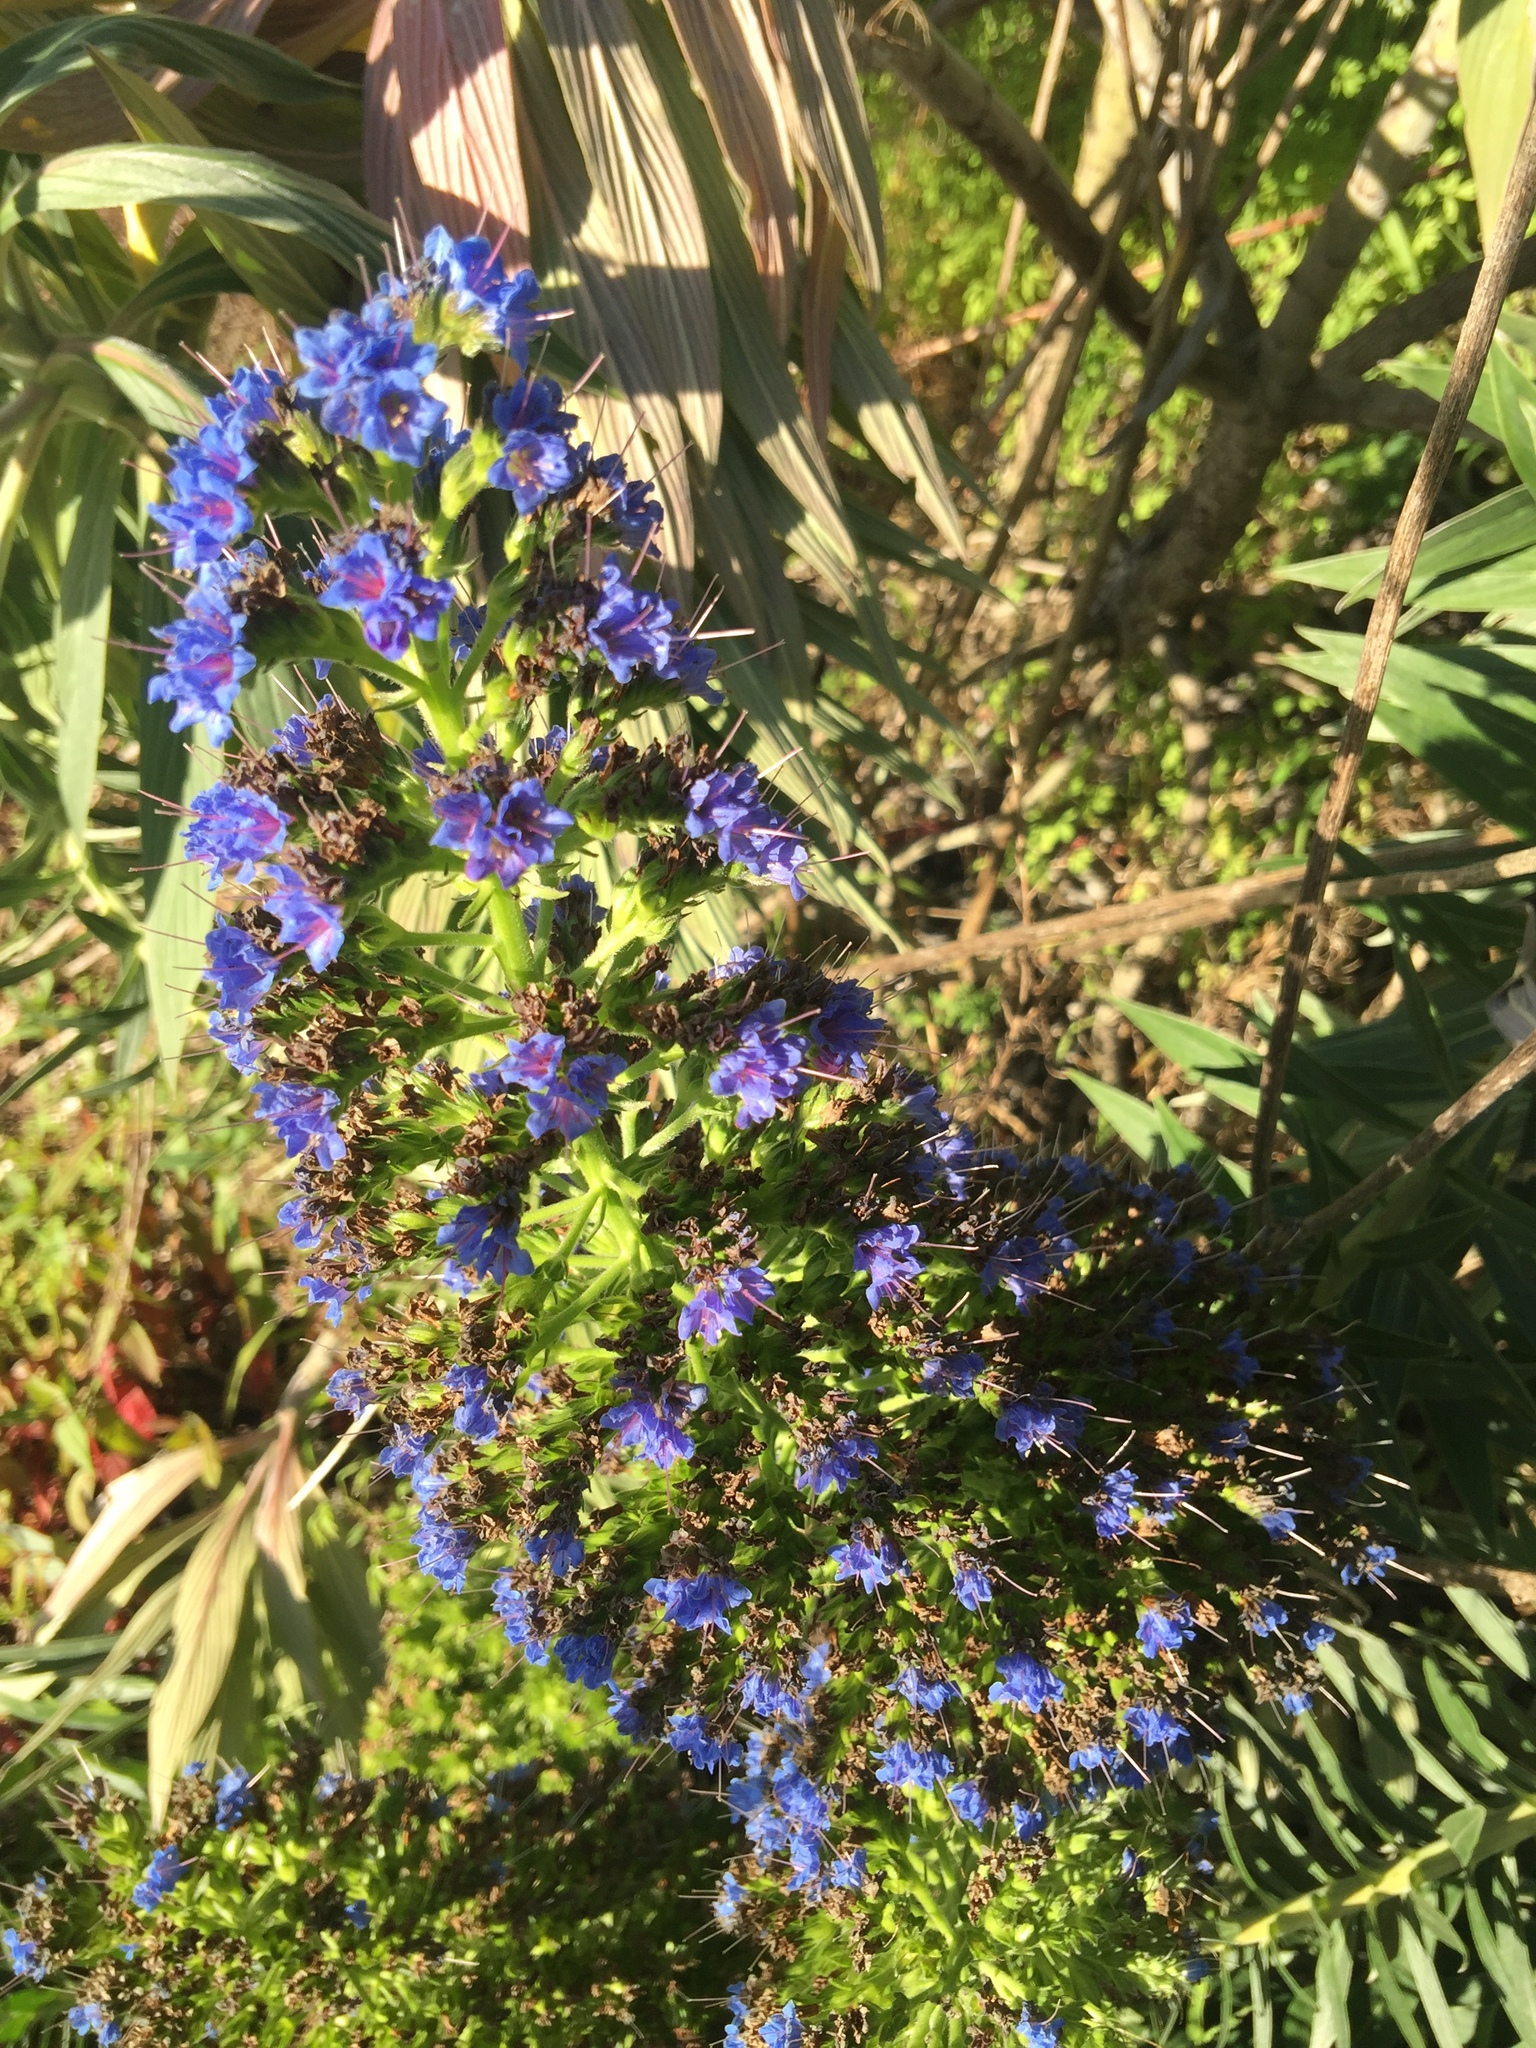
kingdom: Plantae
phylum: Tracheophyta
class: Magnoliopsida
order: Boraginales
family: Boraginaceae
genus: Echium
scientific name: Echium candicans
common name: Pride of madeira
